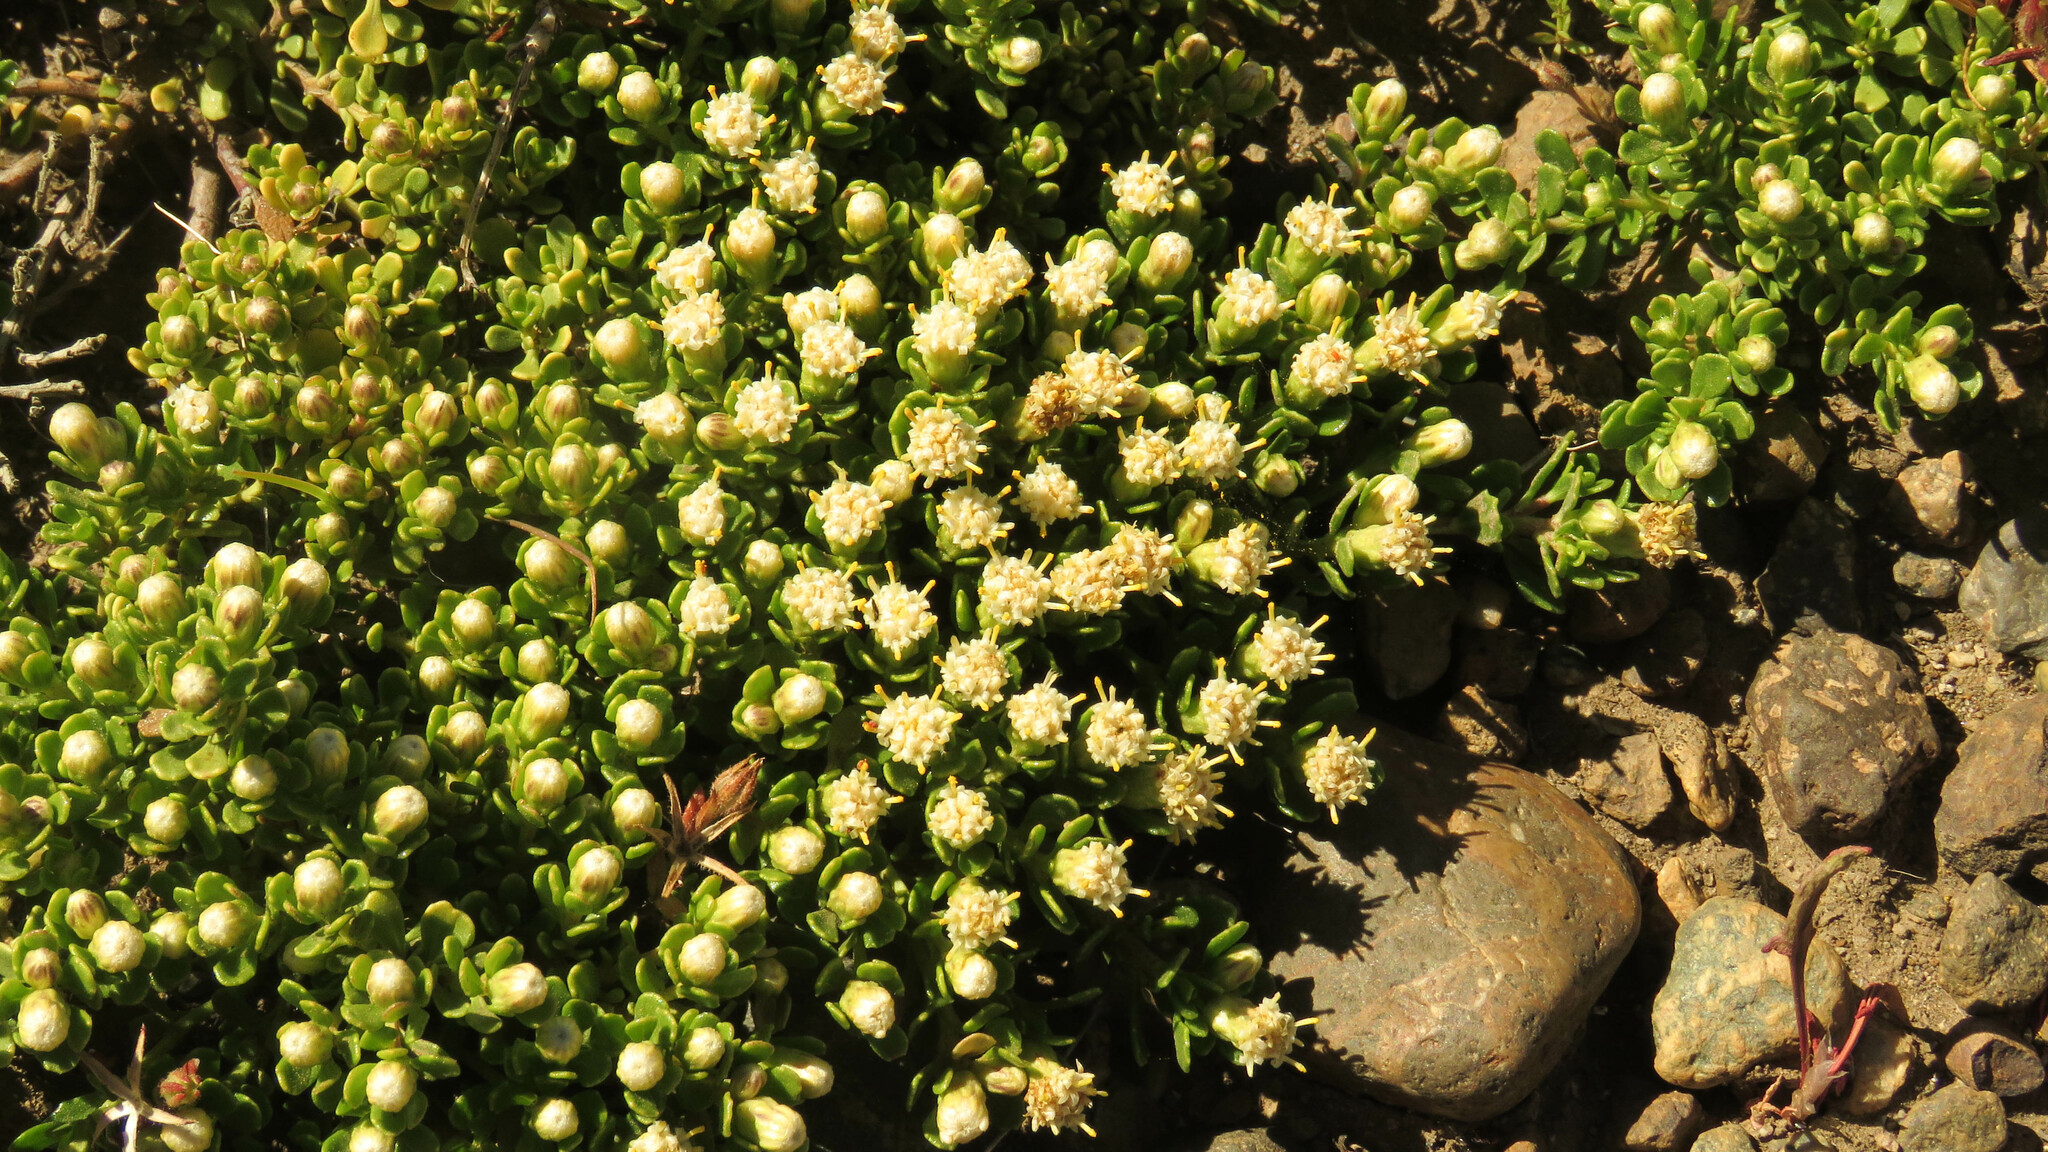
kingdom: Plantae
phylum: Tracheophyta
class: Magnoliopsida
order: Asterales
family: Asteraceae
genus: Baccharis
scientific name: Baccharis magellanica
